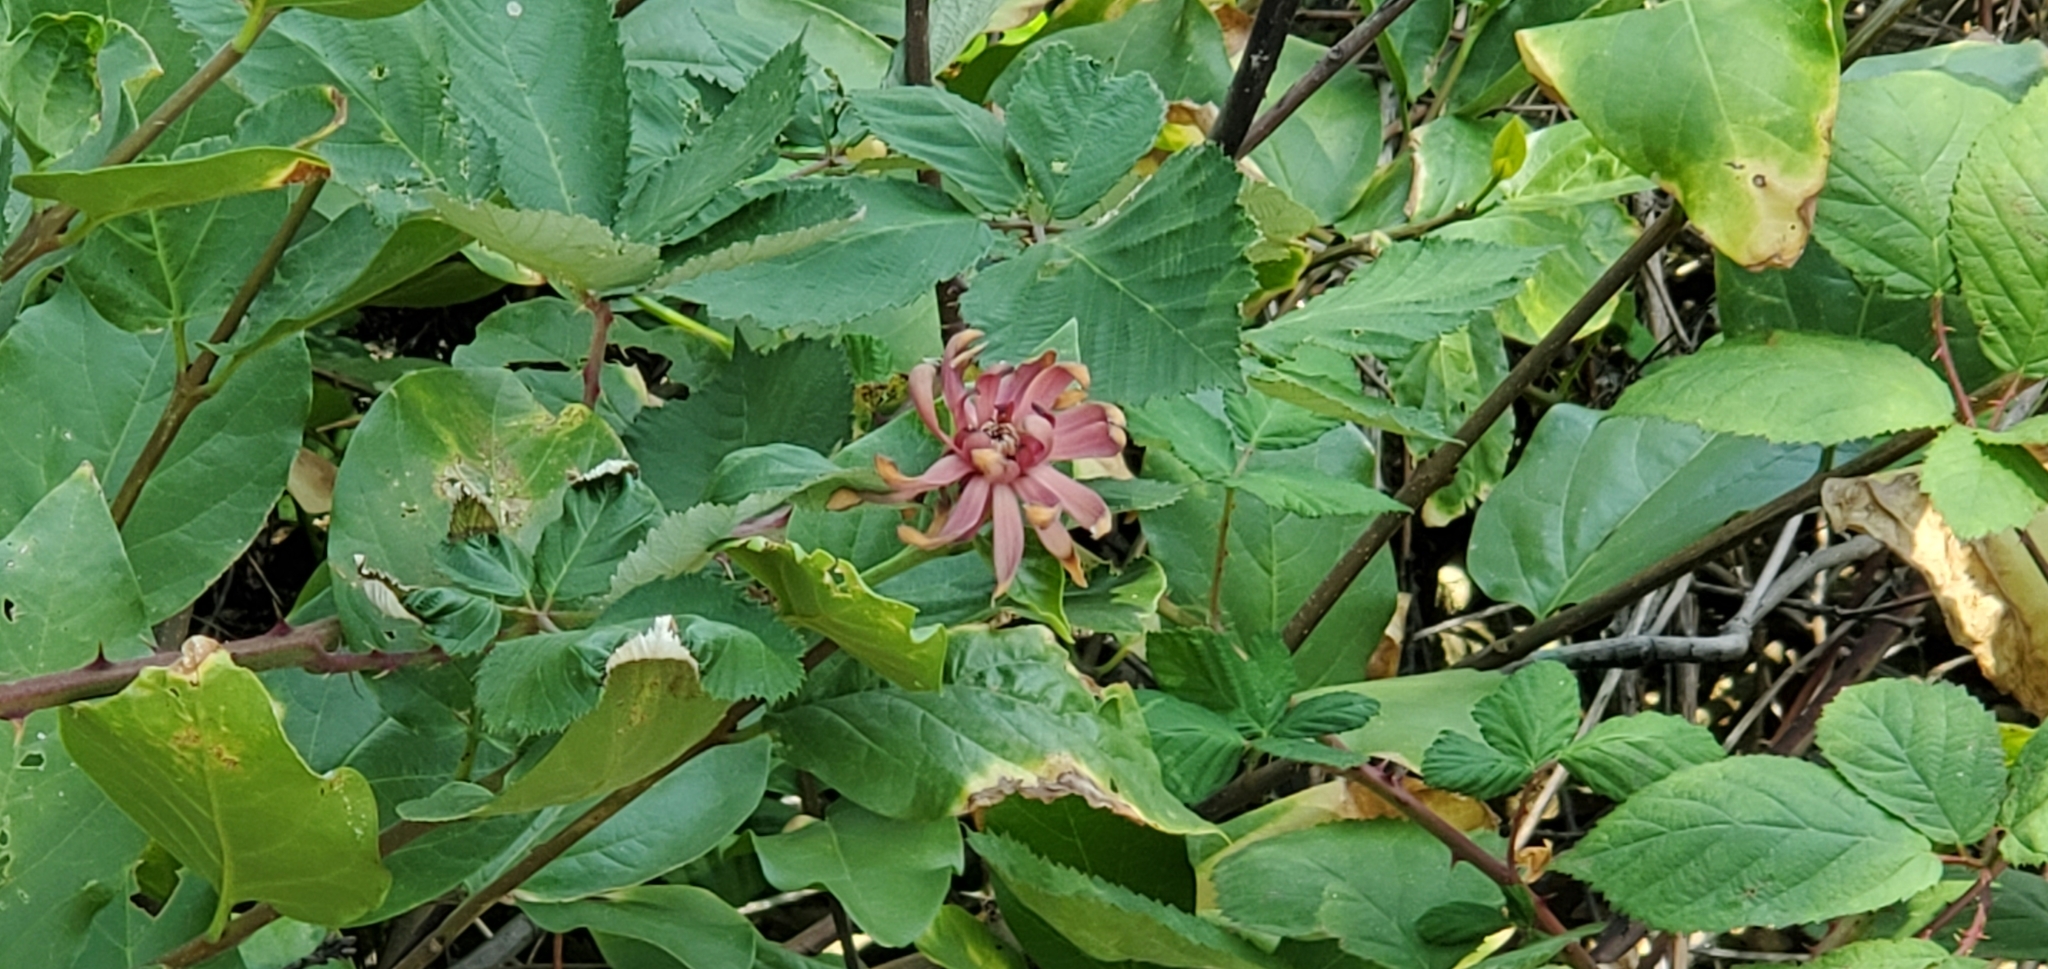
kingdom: Plantae
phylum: Tracheophyta
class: Magnoliopsida
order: Laurales
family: Calycanthaceae
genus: Calycanthus
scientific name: Calycanthus occidentalis
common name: California spicebush
